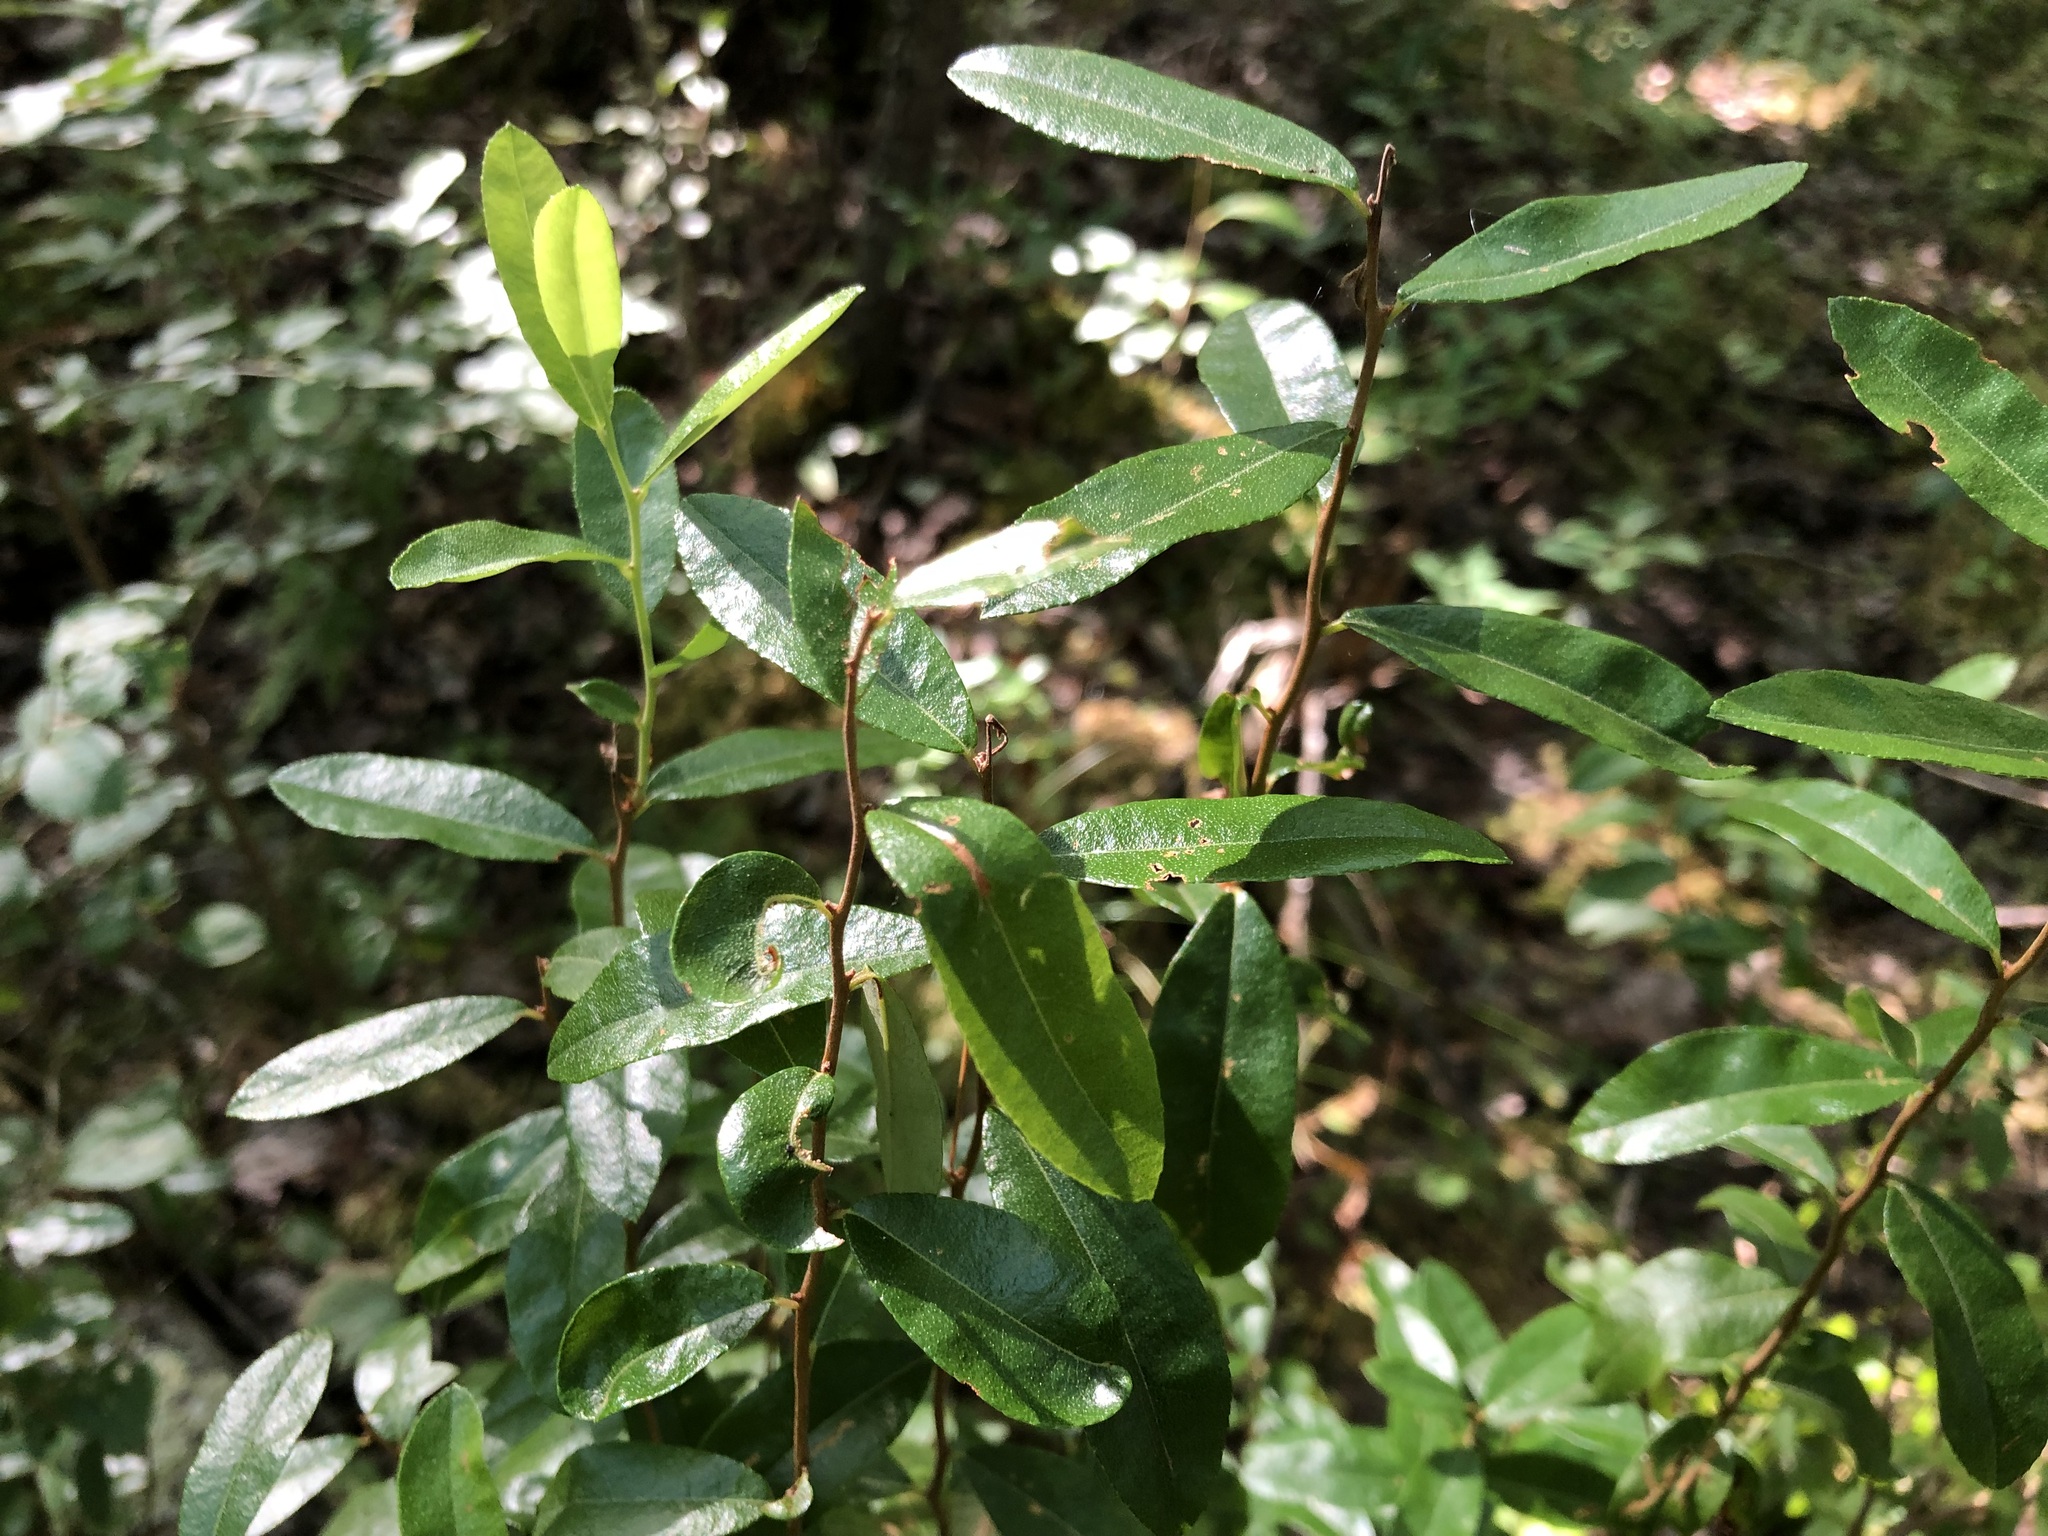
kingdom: Plantae
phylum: Tracheophyta
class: Magnoliopsida
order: Ericales
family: Ericaceae
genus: Chamaedaphne
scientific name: Chamaedaphne calyculata
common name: Leatherleaf
